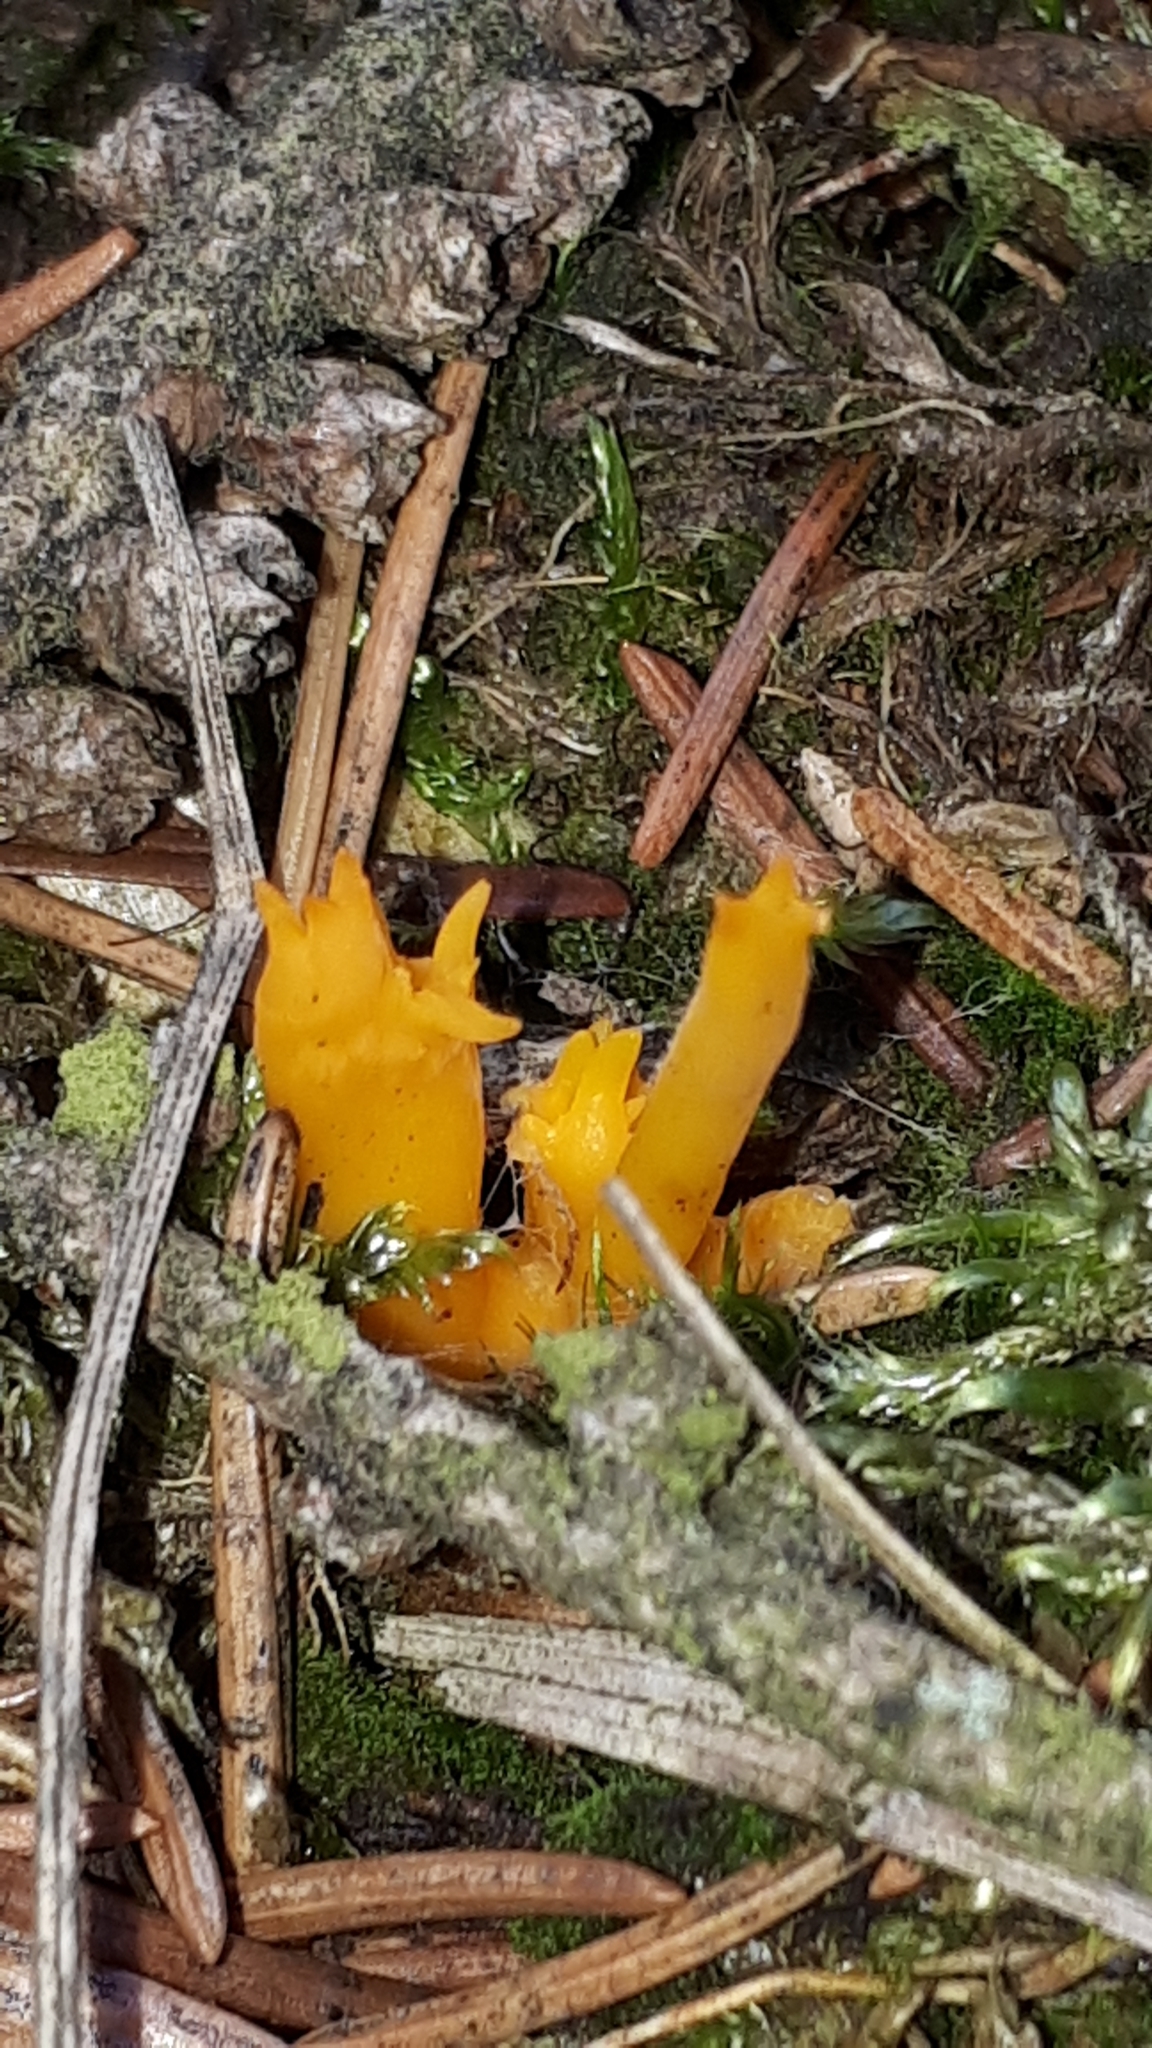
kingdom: Fungi
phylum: Basidiomycota
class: Dacrymycetes
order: Dacrymycetales
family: Dacrymycetaceae
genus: Calocera
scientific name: Calocera viscosa
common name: Yellow stagshorn
